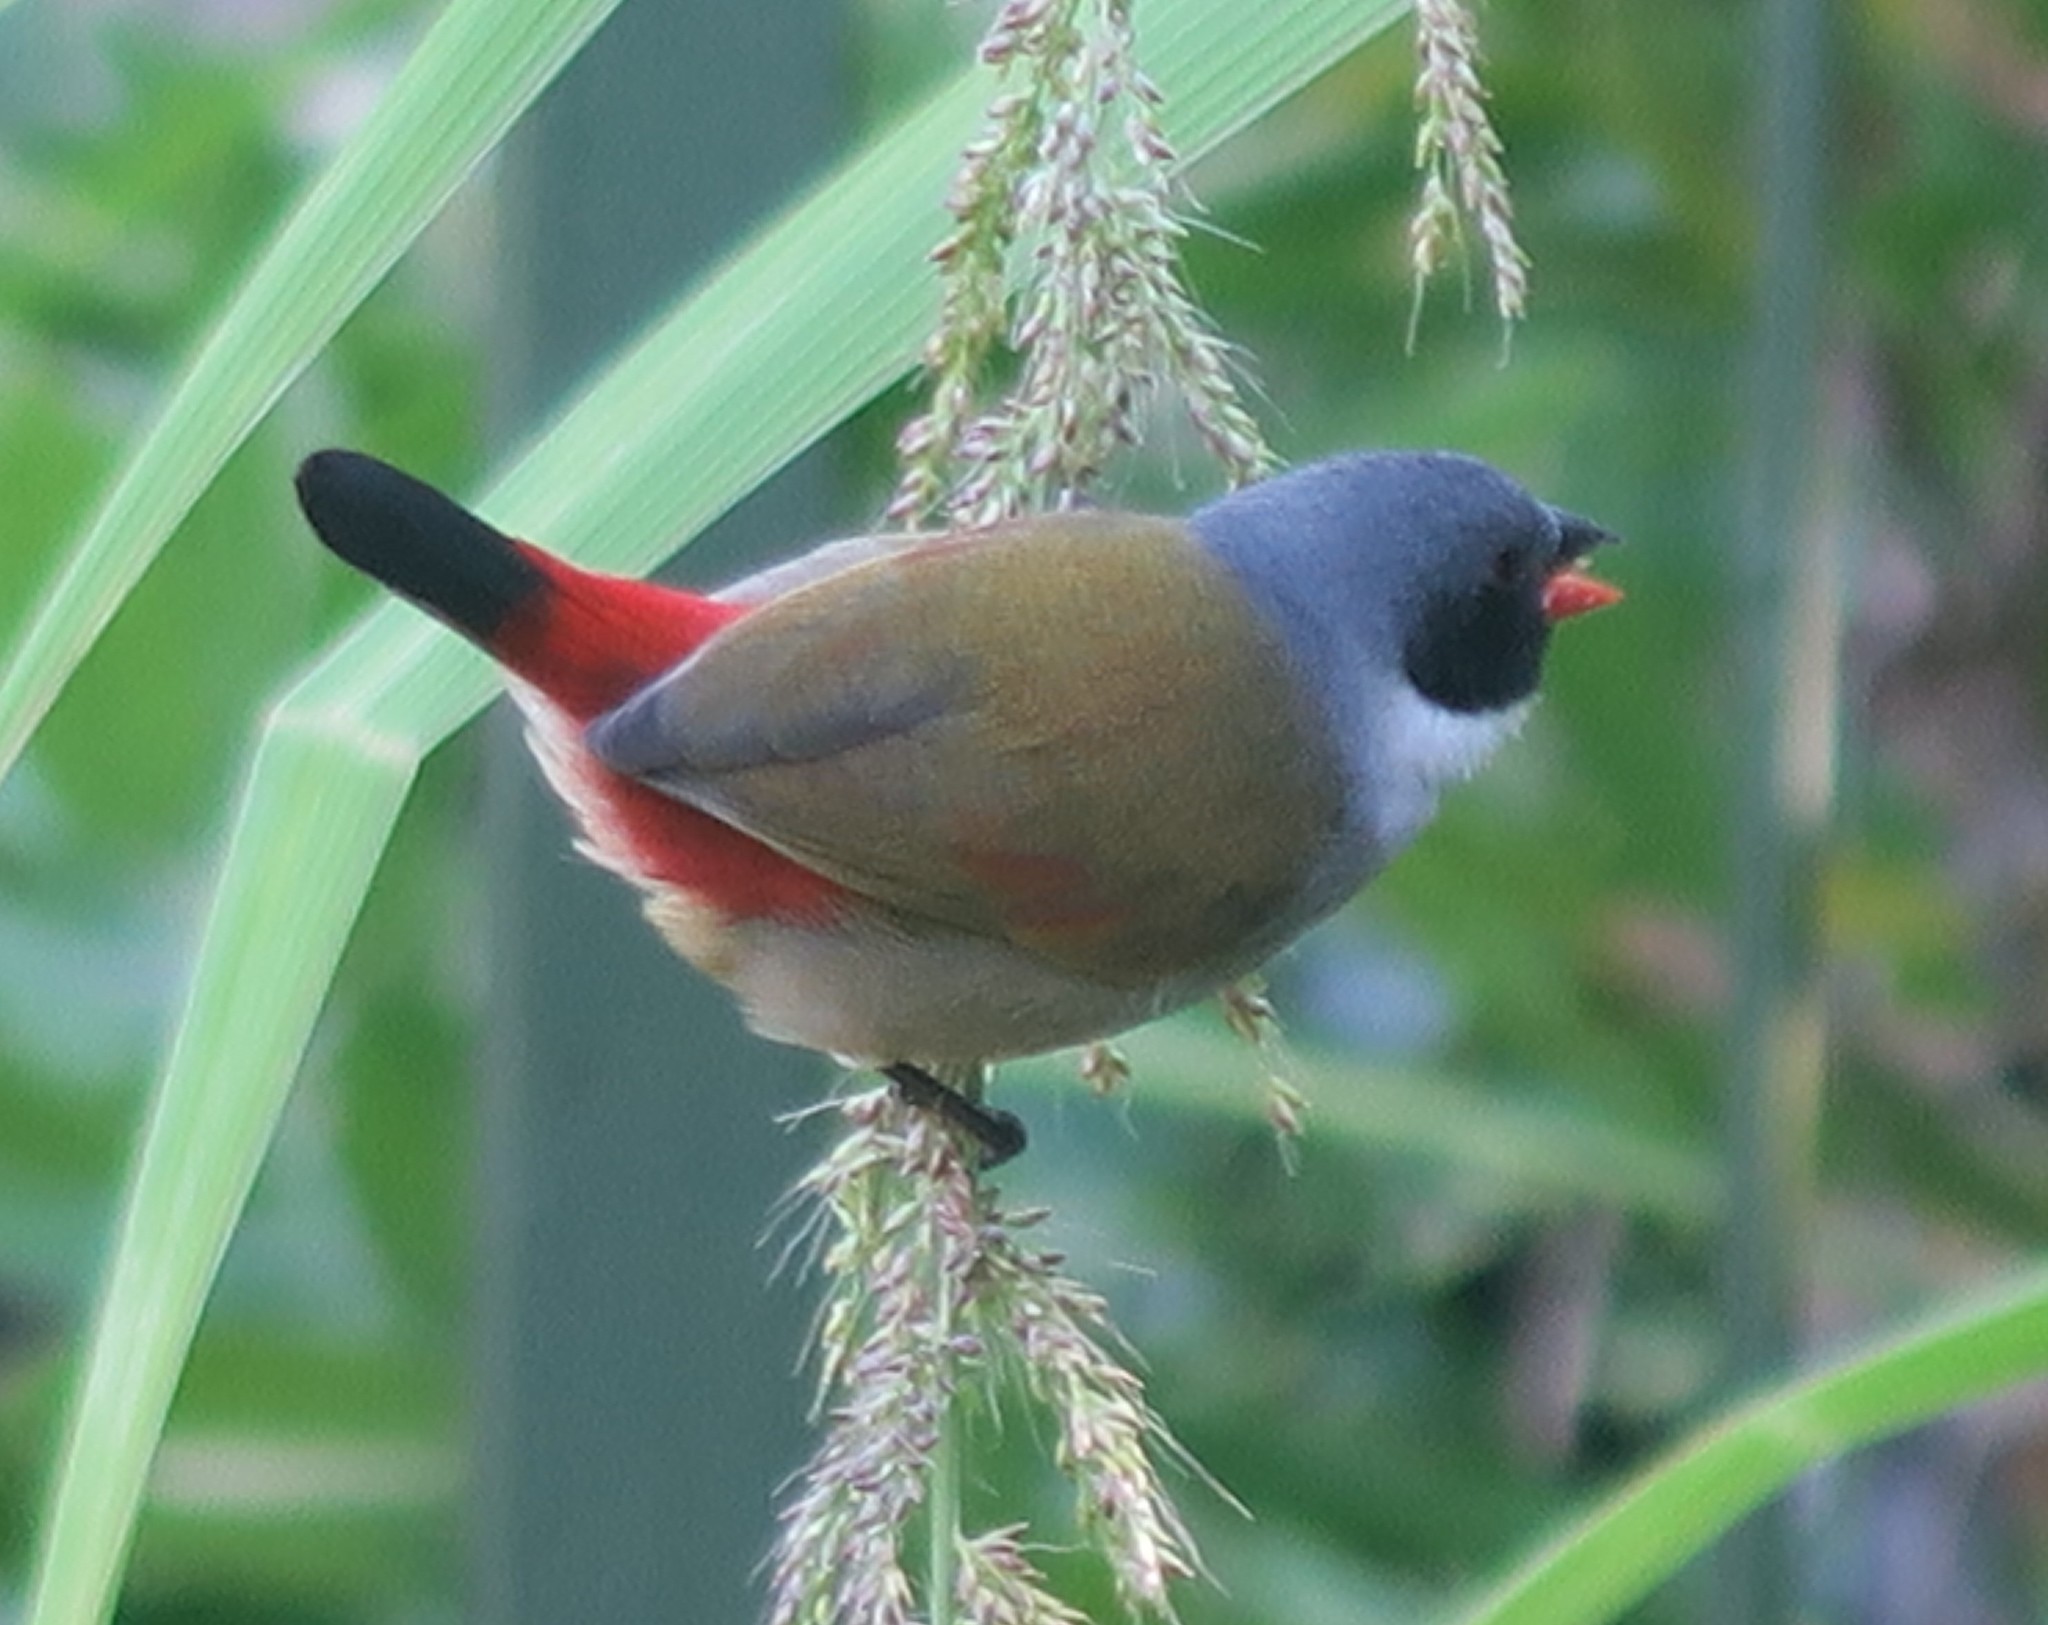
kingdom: Animalia
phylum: Chordata
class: Aves
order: Passeriformes
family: Estrildidae
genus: Coccopygia
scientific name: Coccopygia melanotis
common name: Swee waxbill
